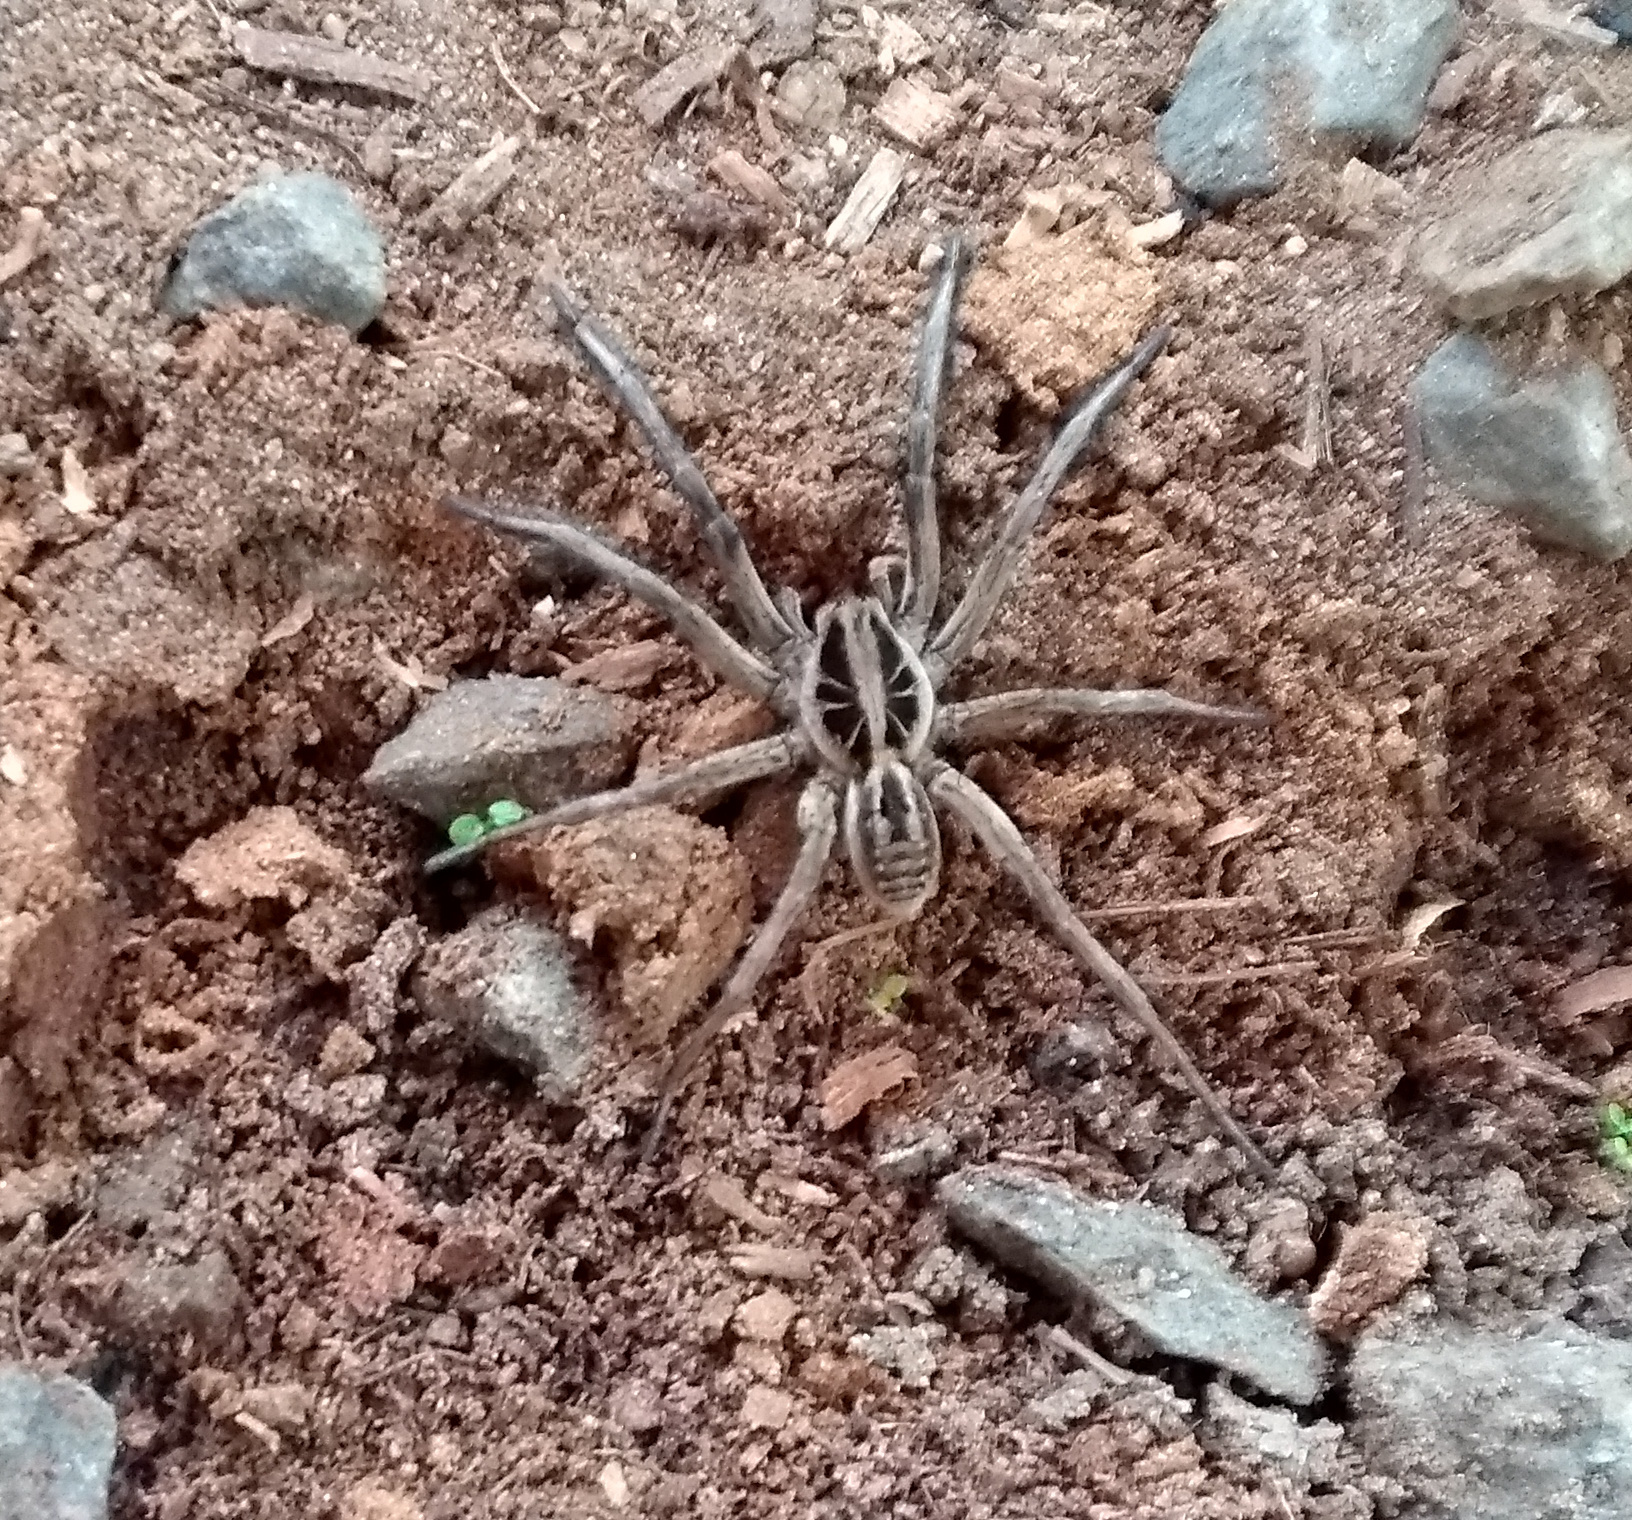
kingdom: Animalia
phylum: Arthropoda
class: Arachnida
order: Araneae
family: Lycosidae
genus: Lycosa
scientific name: Lycosa erythrognatha
